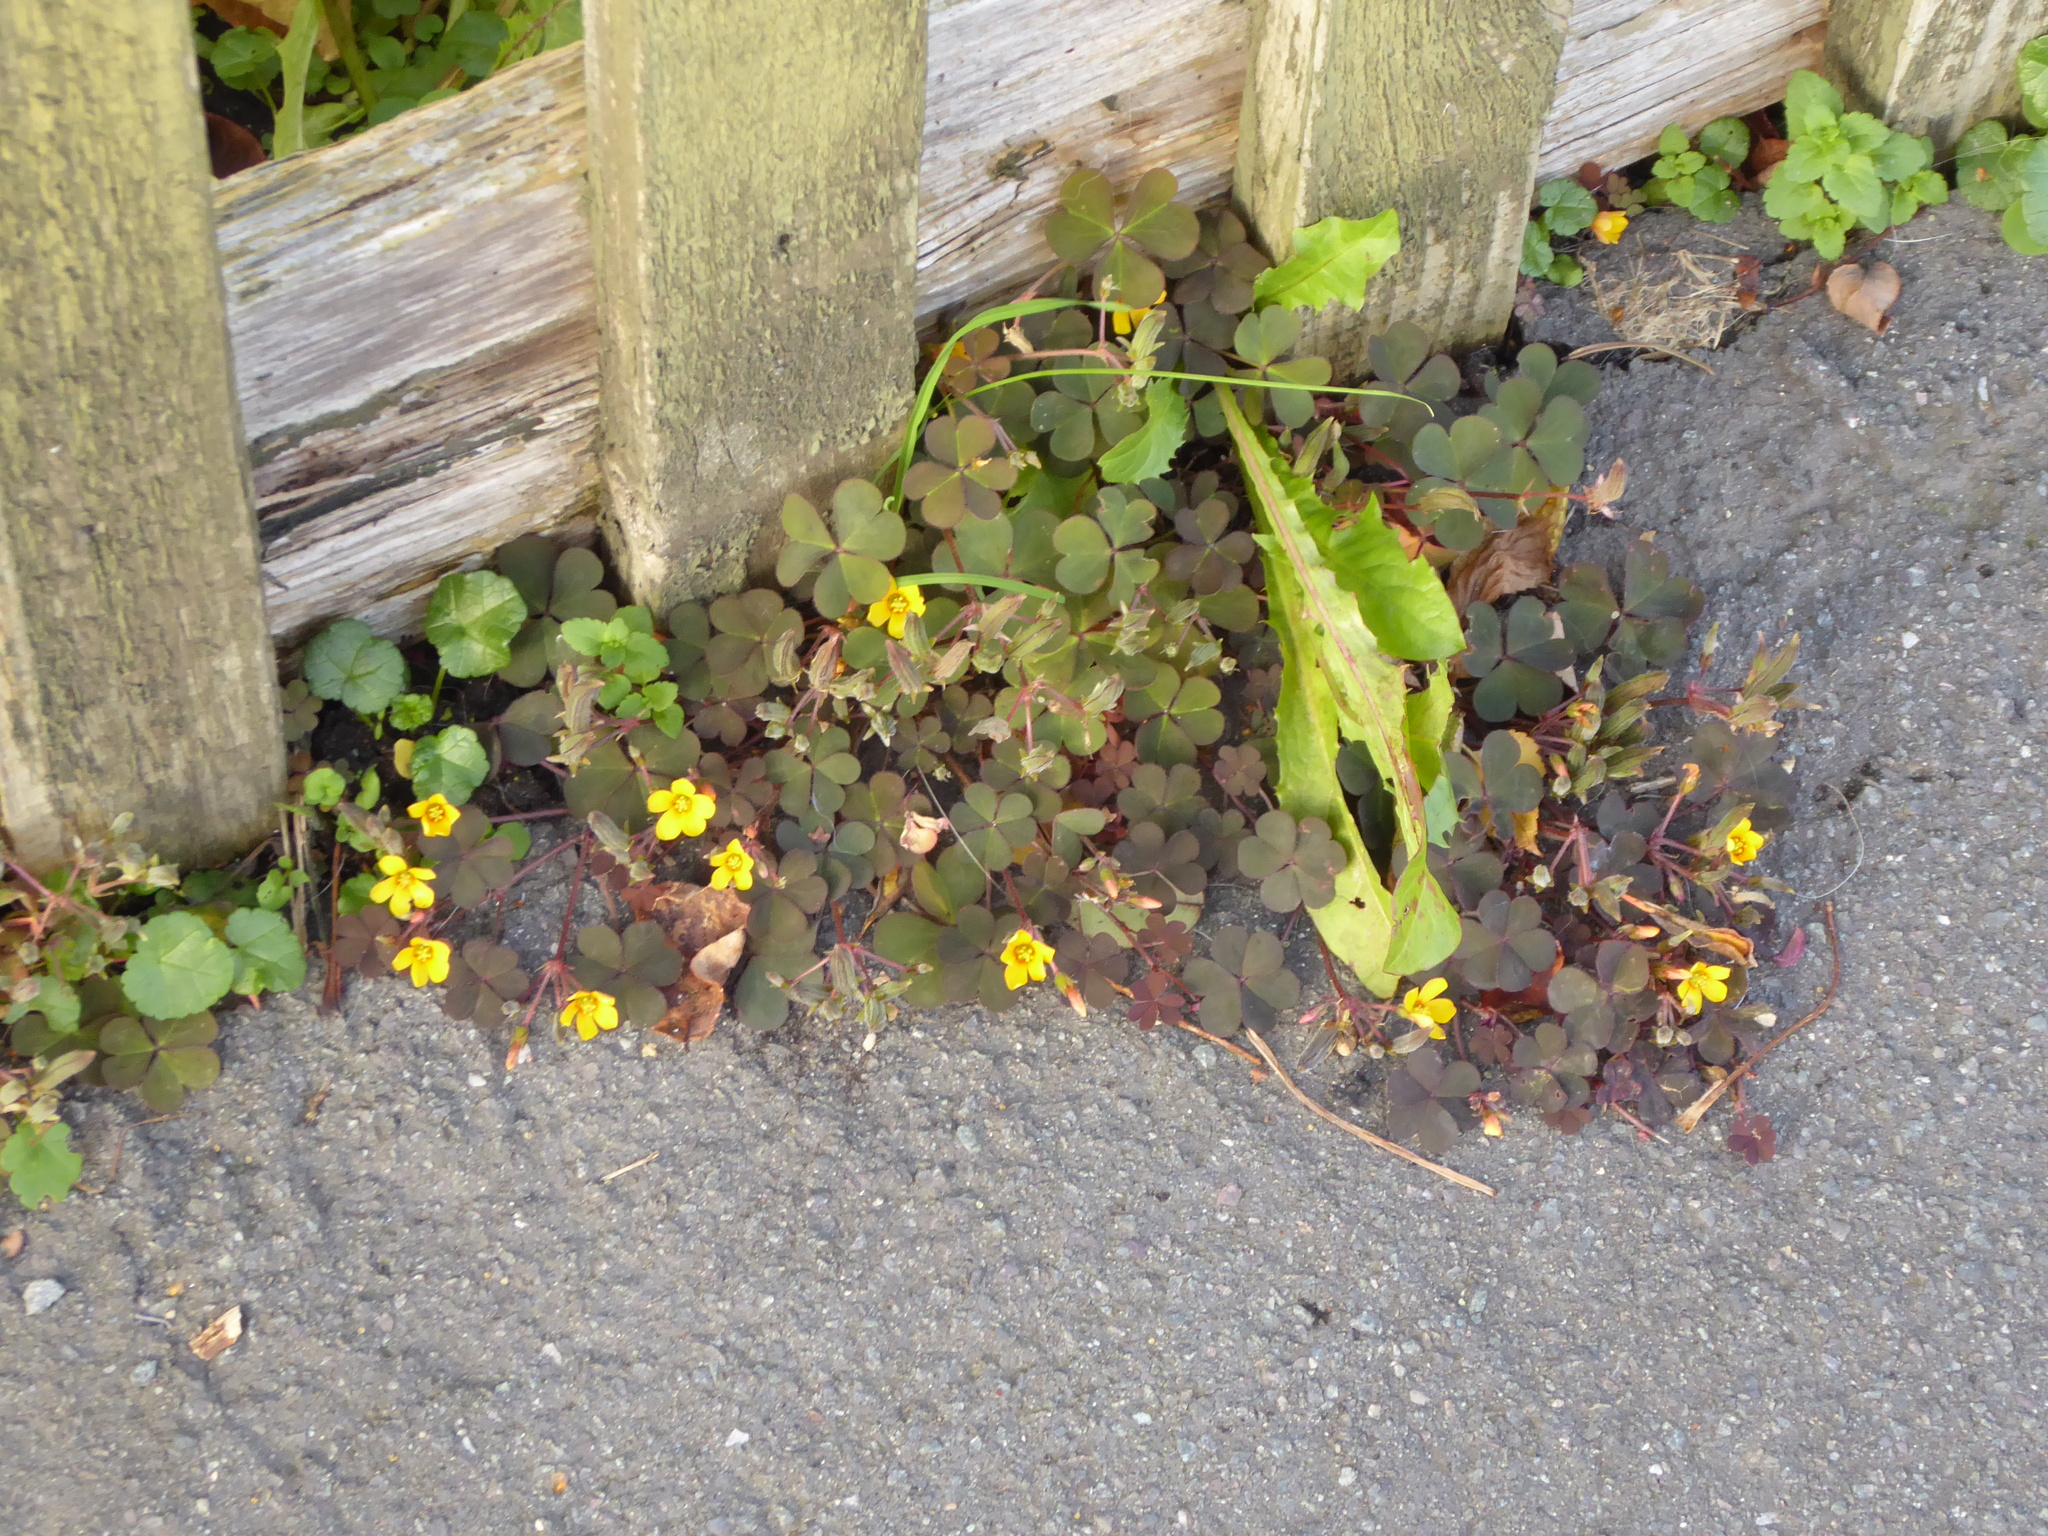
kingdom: Plantae
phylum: Tracheophyta
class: Magnoliopsida
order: Oxalidales
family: Oxalidaceae
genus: Oxalis
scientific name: Oxalis corniculata
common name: Procumbent yellow-sorrel
